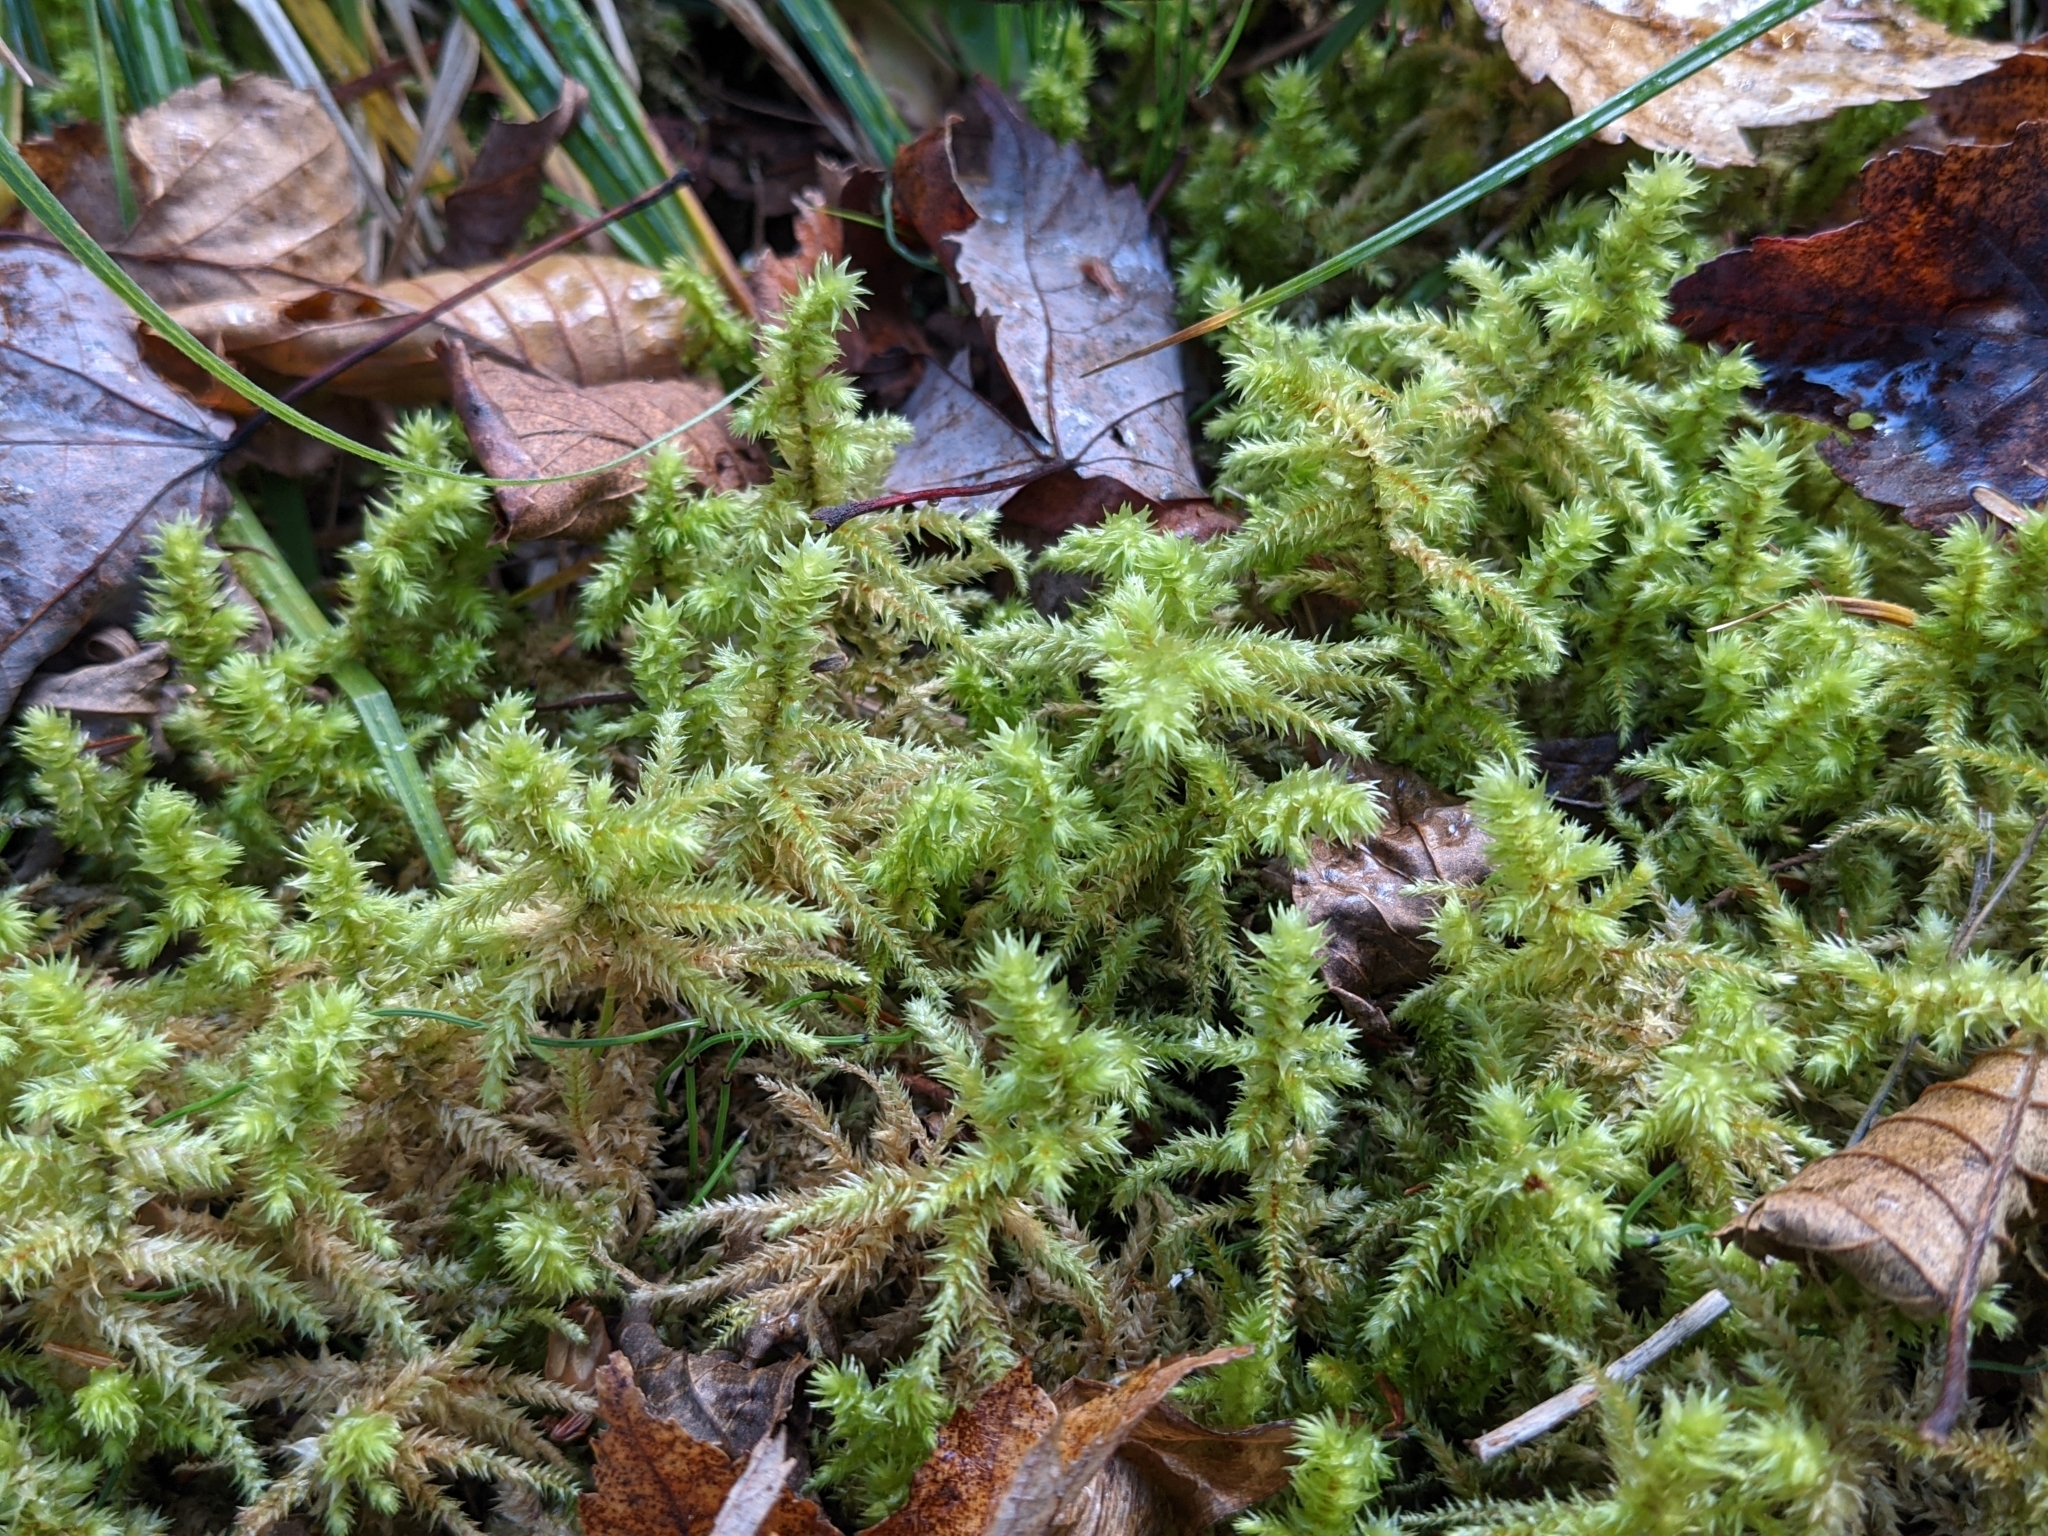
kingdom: Plantae
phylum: Bryophyta
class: Bryopsida
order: Hypnales
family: Hylocomiaceae
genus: Hylocomiadelphus
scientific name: Hylocomiadelphus triquetrus
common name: Rough goose neck moss
